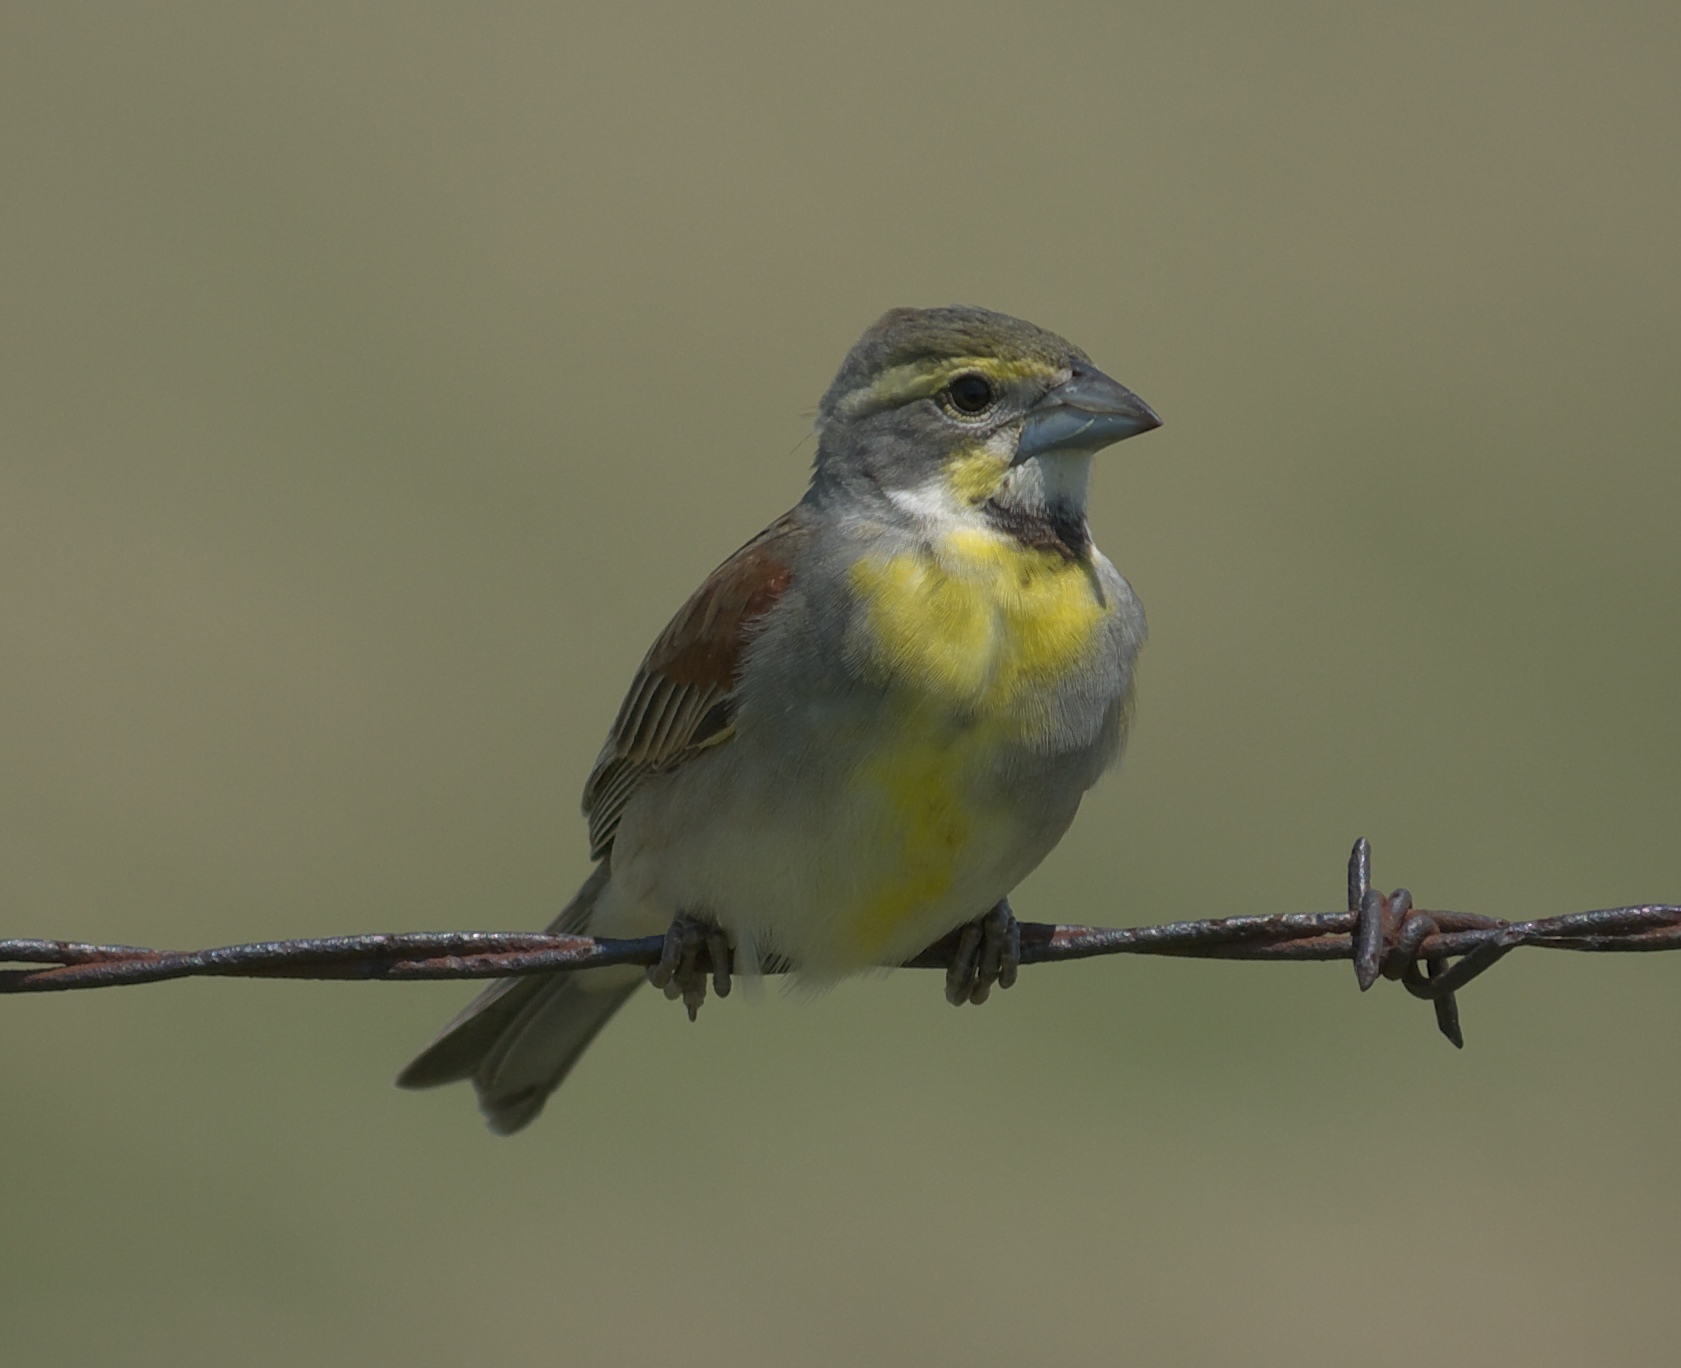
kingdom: Animalia
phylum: Chordata
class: Aves
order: Passeriformes
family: Cardinalidae
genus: Spiza
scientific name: Spiza americana
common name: Dickcissel
